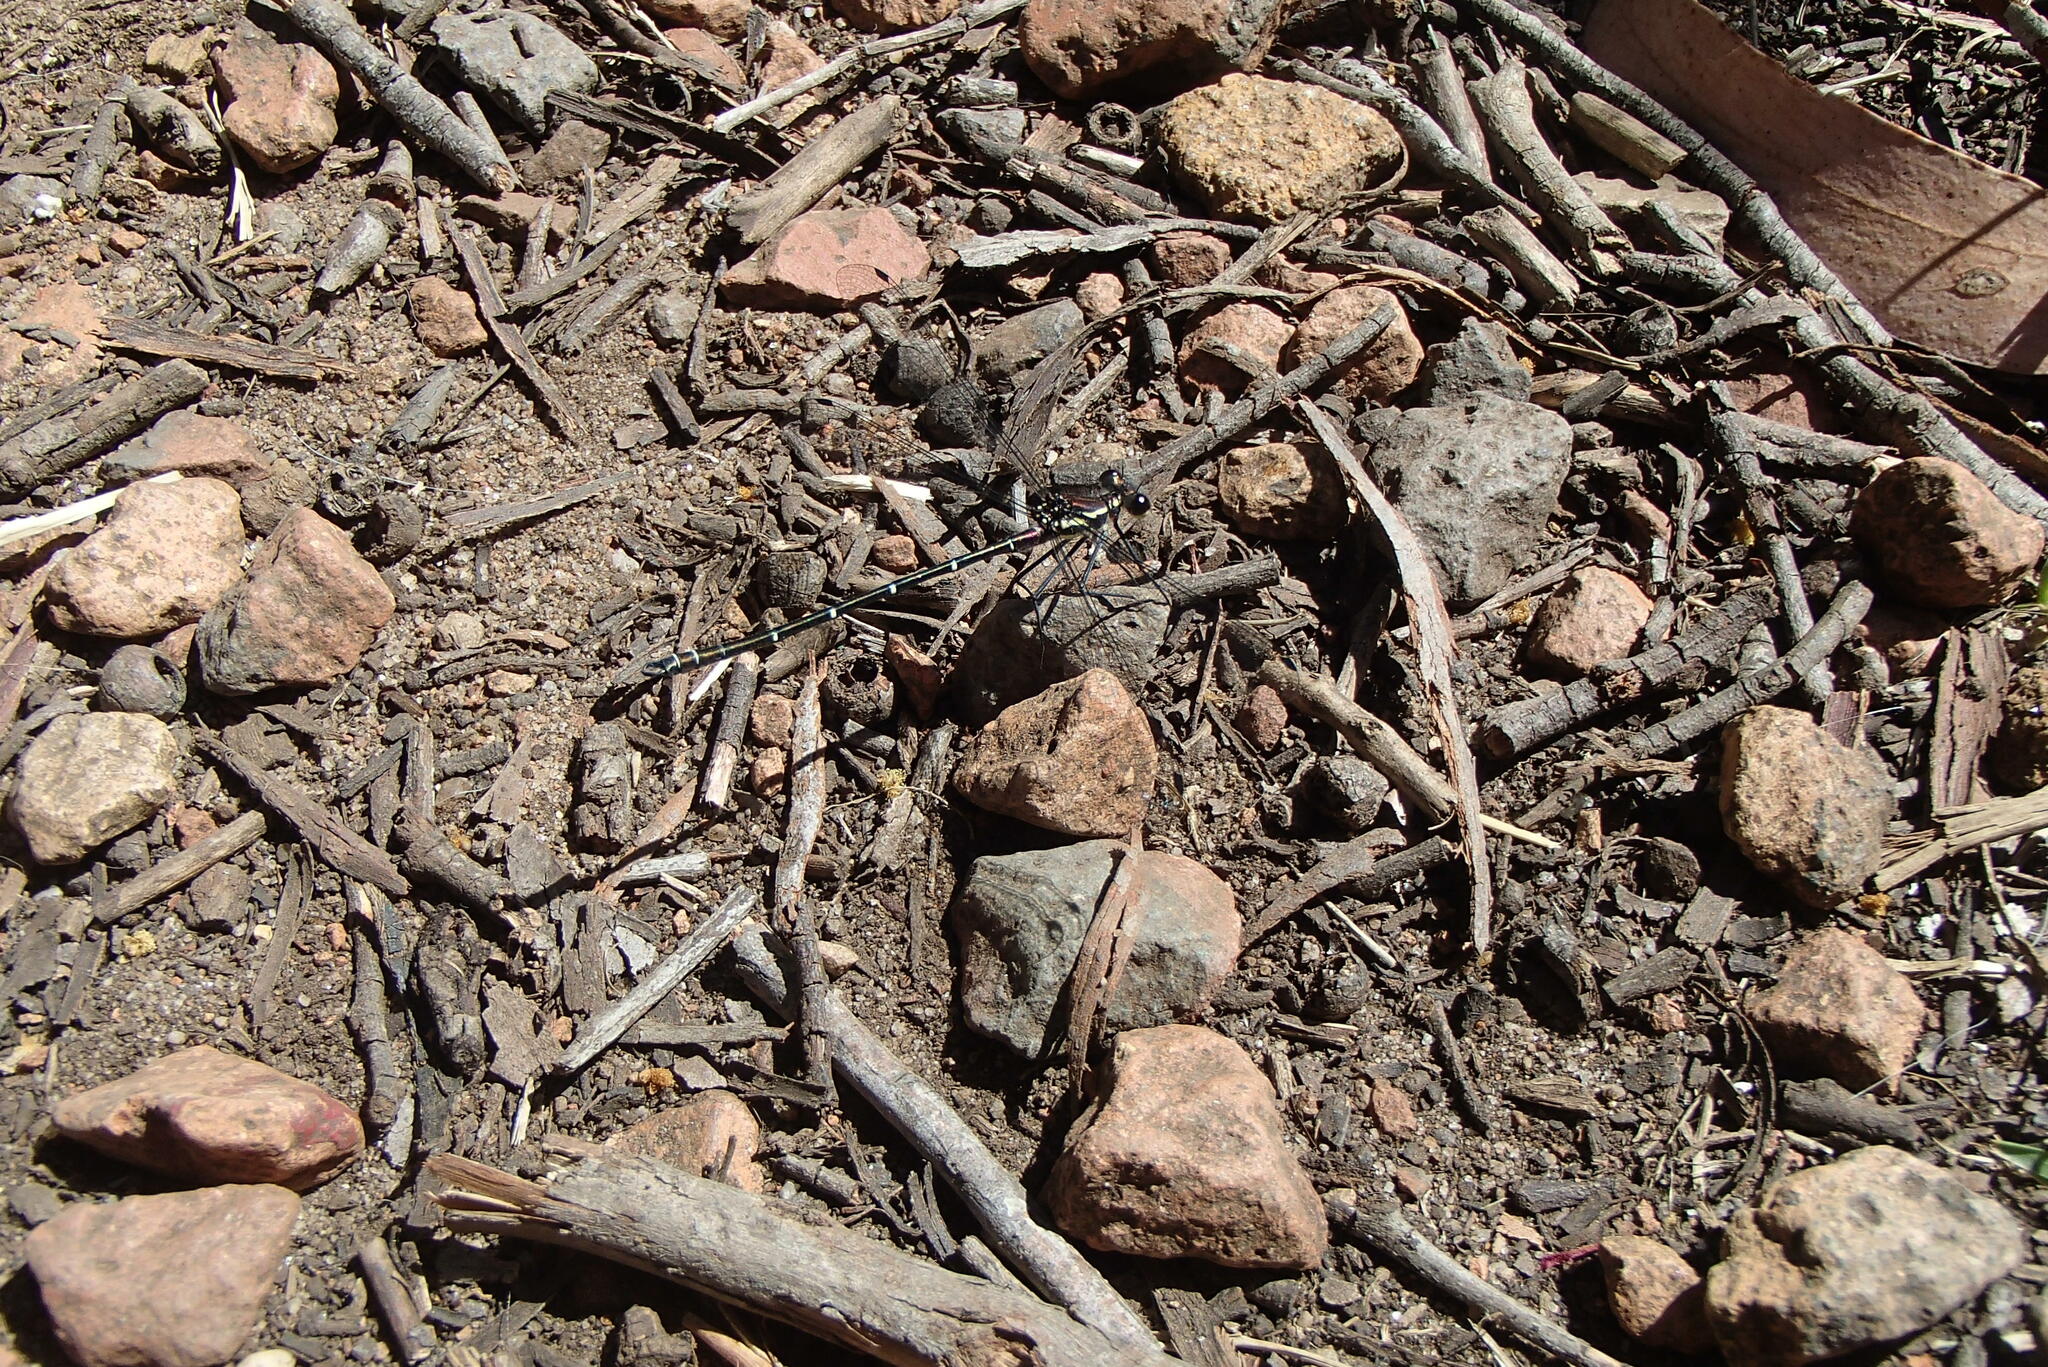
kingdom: Animalia
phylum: Arthropoda
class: Insecta
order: Odonata
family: Argiolestidae
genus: Austroargiolestes
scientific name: Austroargiolestes isabellae
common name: Sydney flatwing
